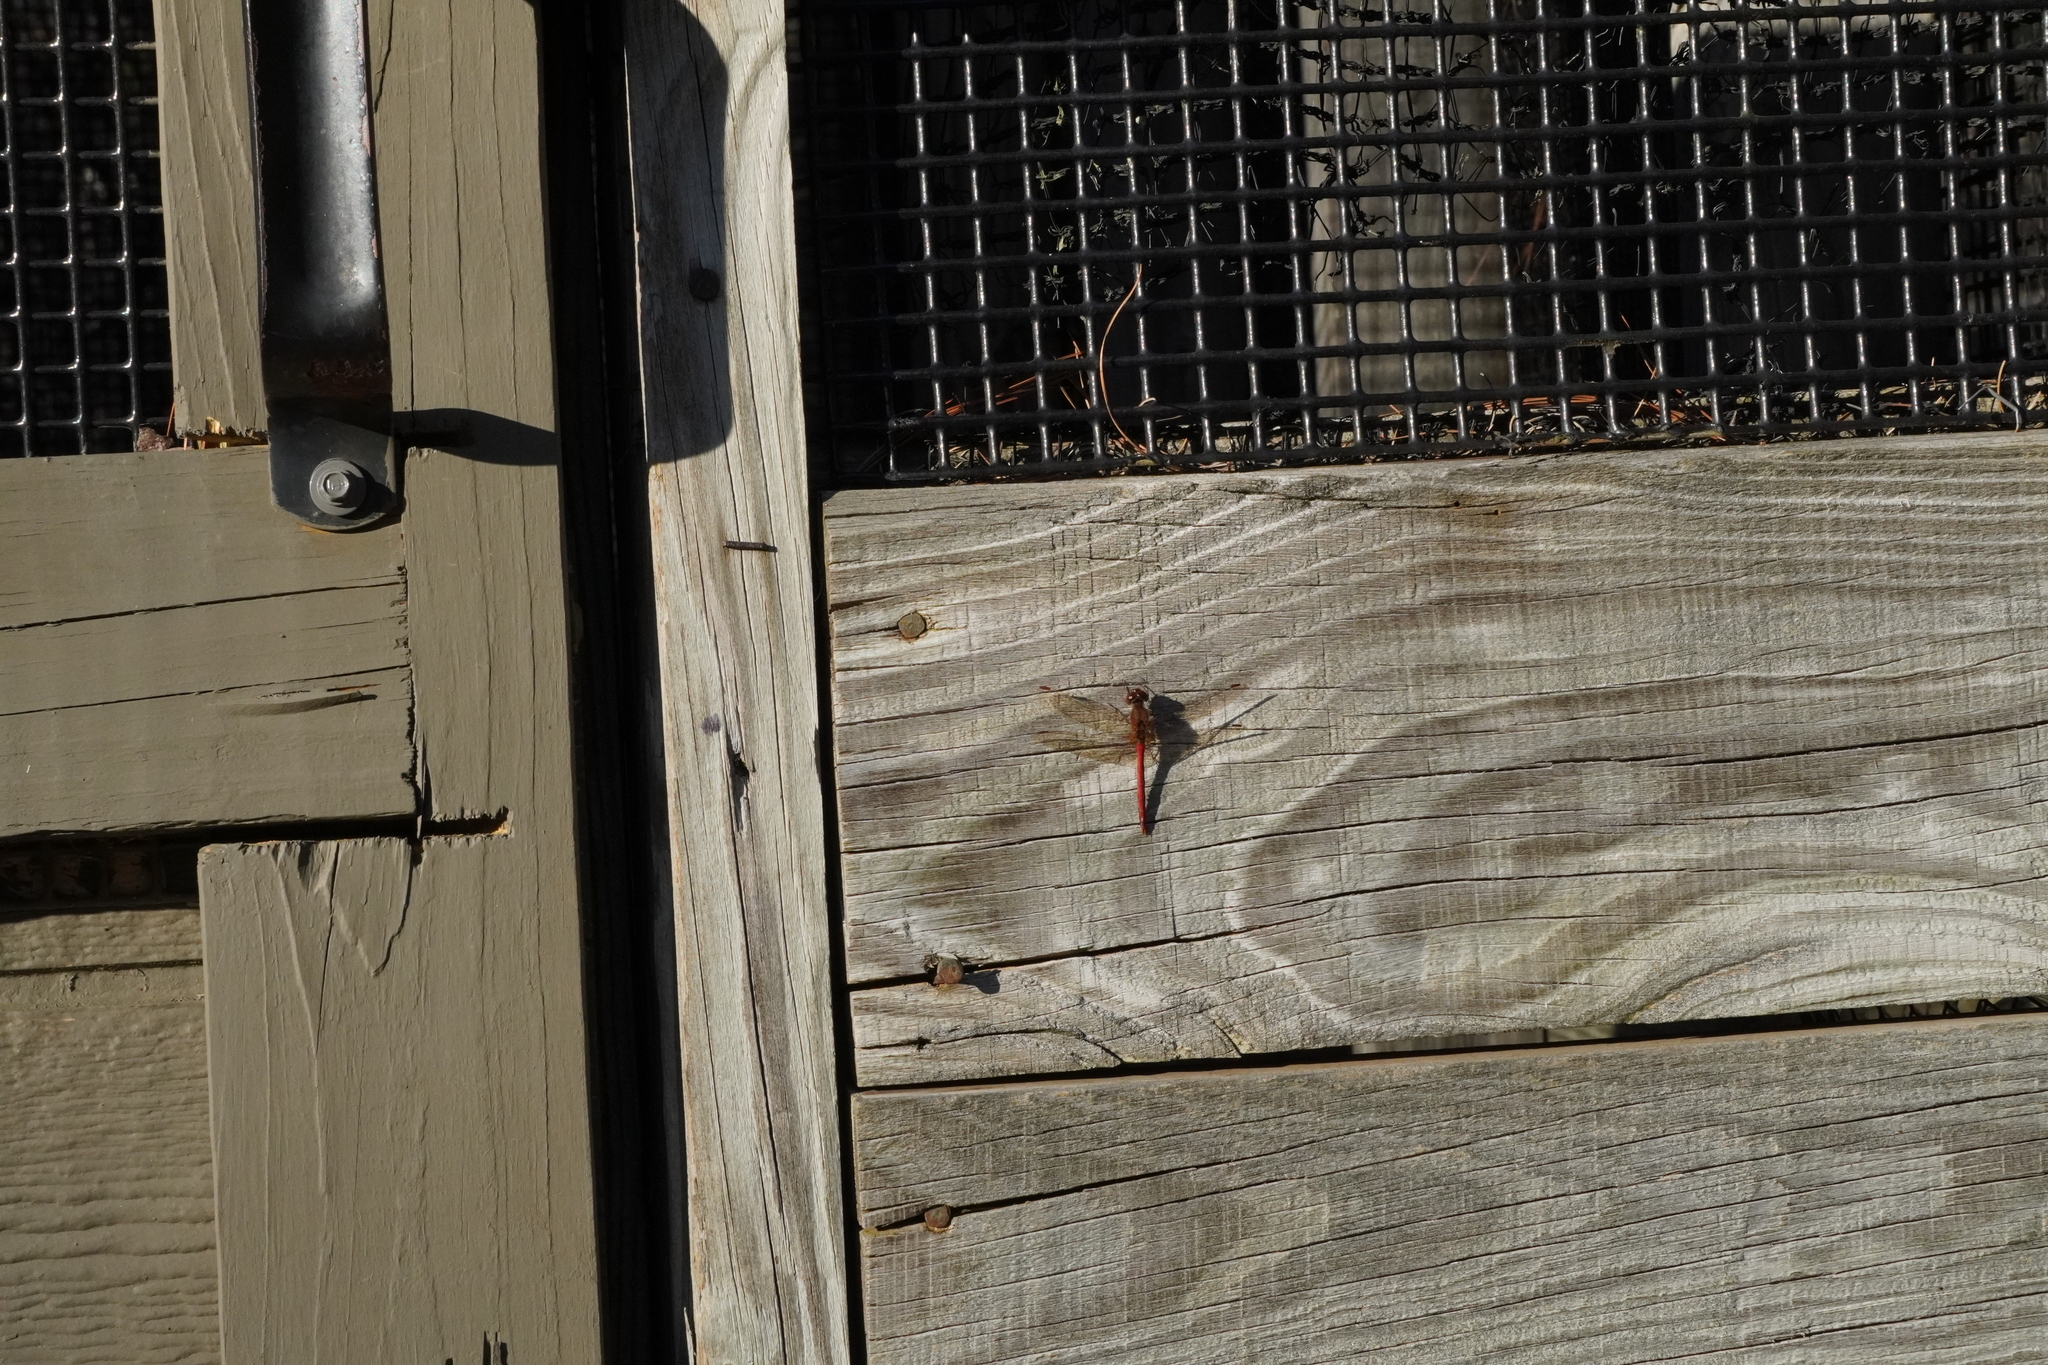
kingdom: Animalia
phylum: Arthropoda
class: Insecta
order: Odonata
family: Libellulidae
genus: Sympetrum
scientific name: Sympetrum vicinum
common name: Autumn meadowhawk
